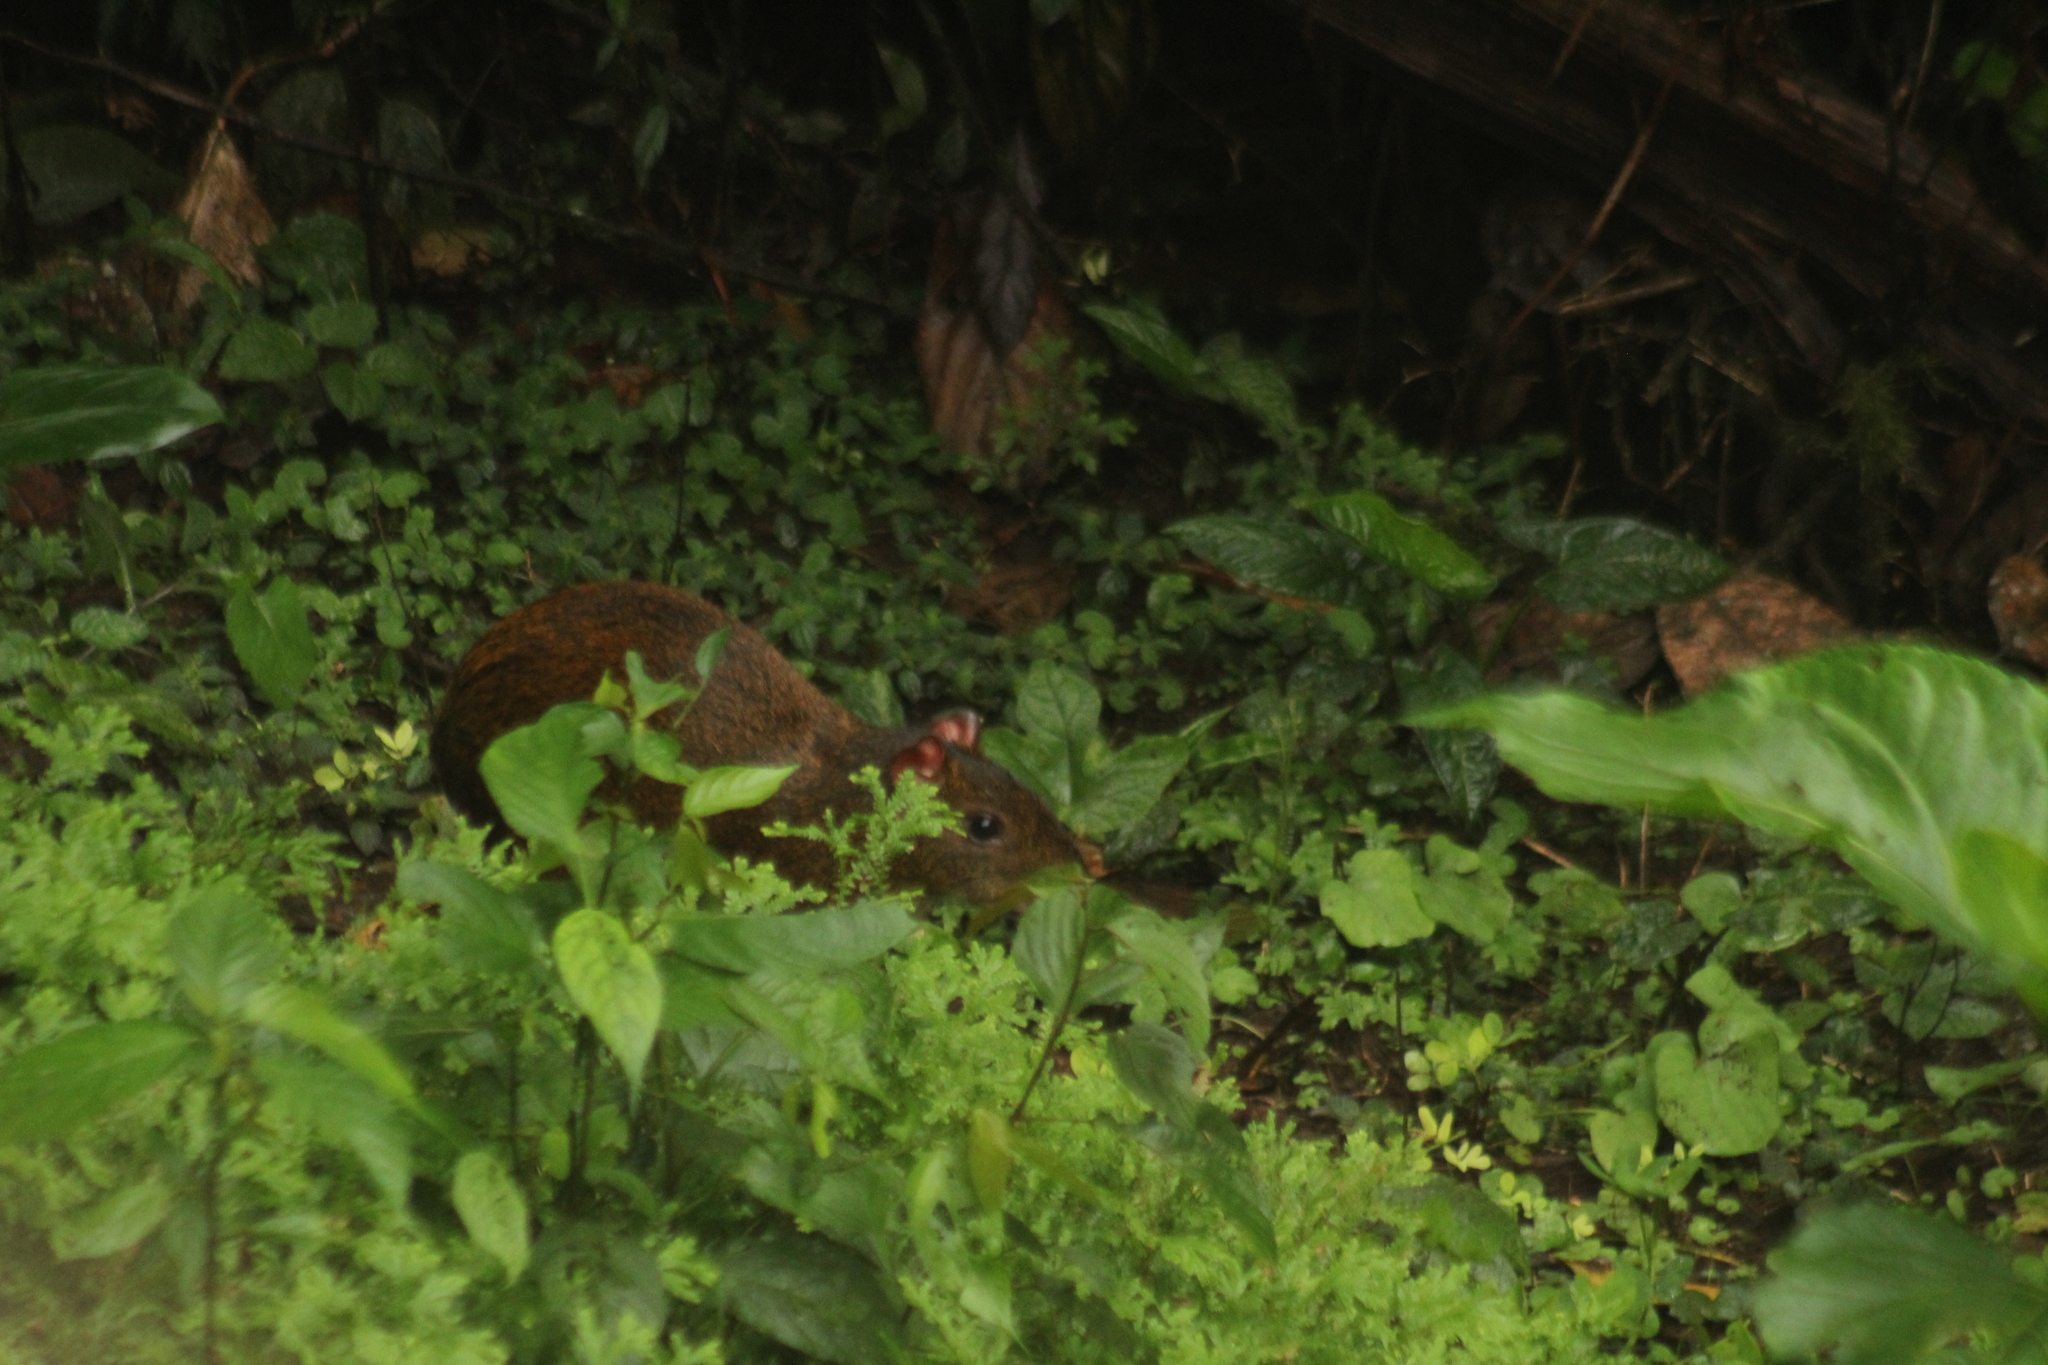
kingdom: Animalia
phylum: Chordata
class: Mammalia
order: Rodentia
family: Dasyproctidae
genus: Dasyprocta
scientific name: Dasyprocta punctata
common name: Central american agouti
